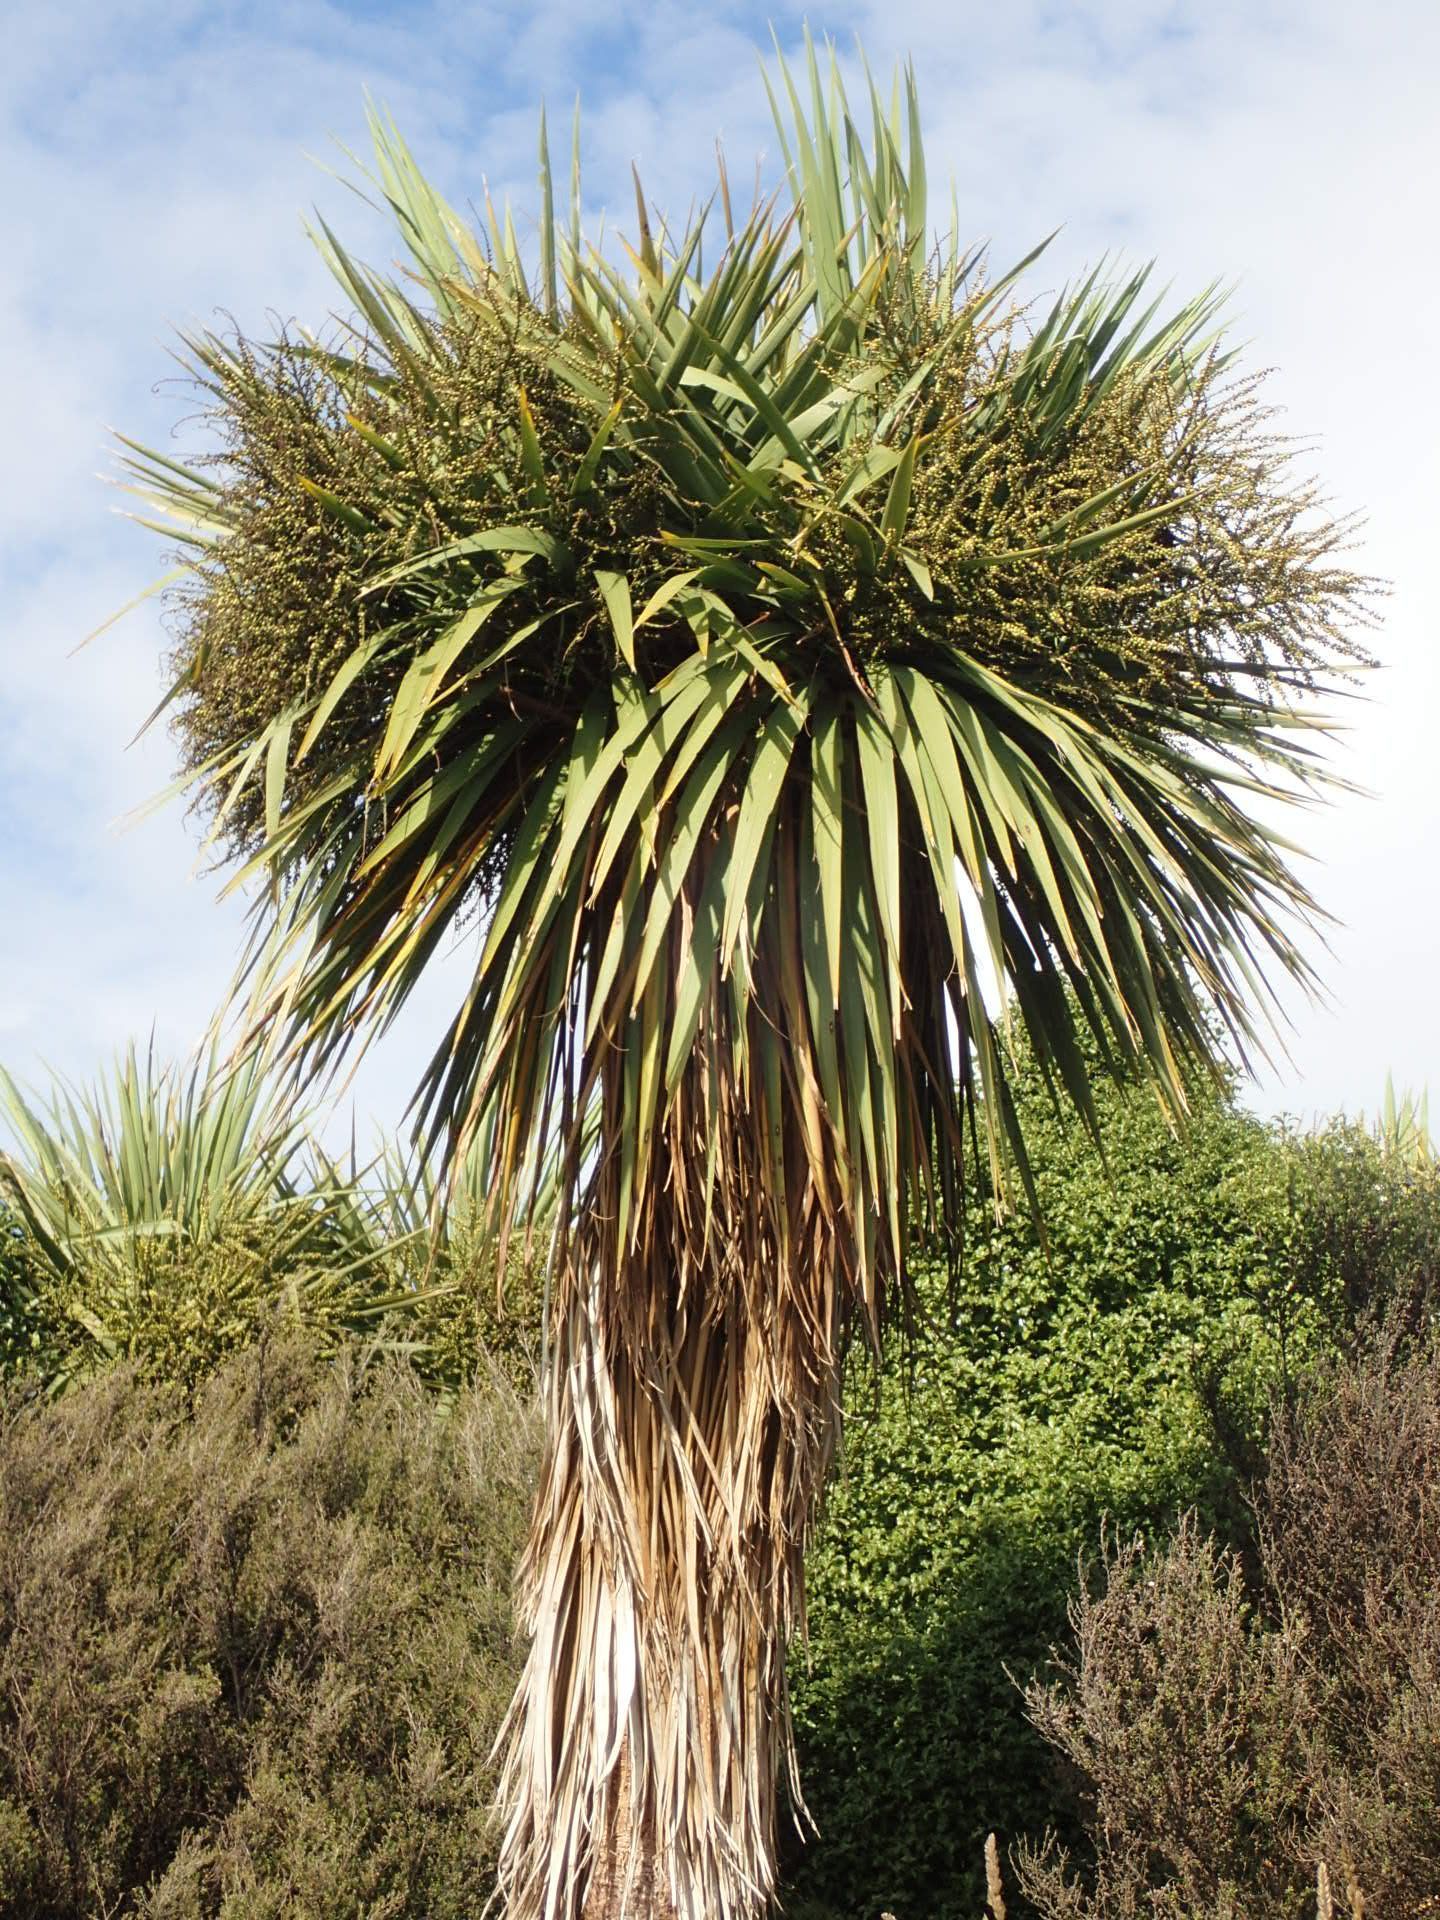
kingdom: Plantae
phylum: Tracheophyta
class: Liliopsida
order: Asparagales
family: Asparagaceae
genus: Cordyline
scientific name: Cordyline australis
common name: Cabbage-palm
